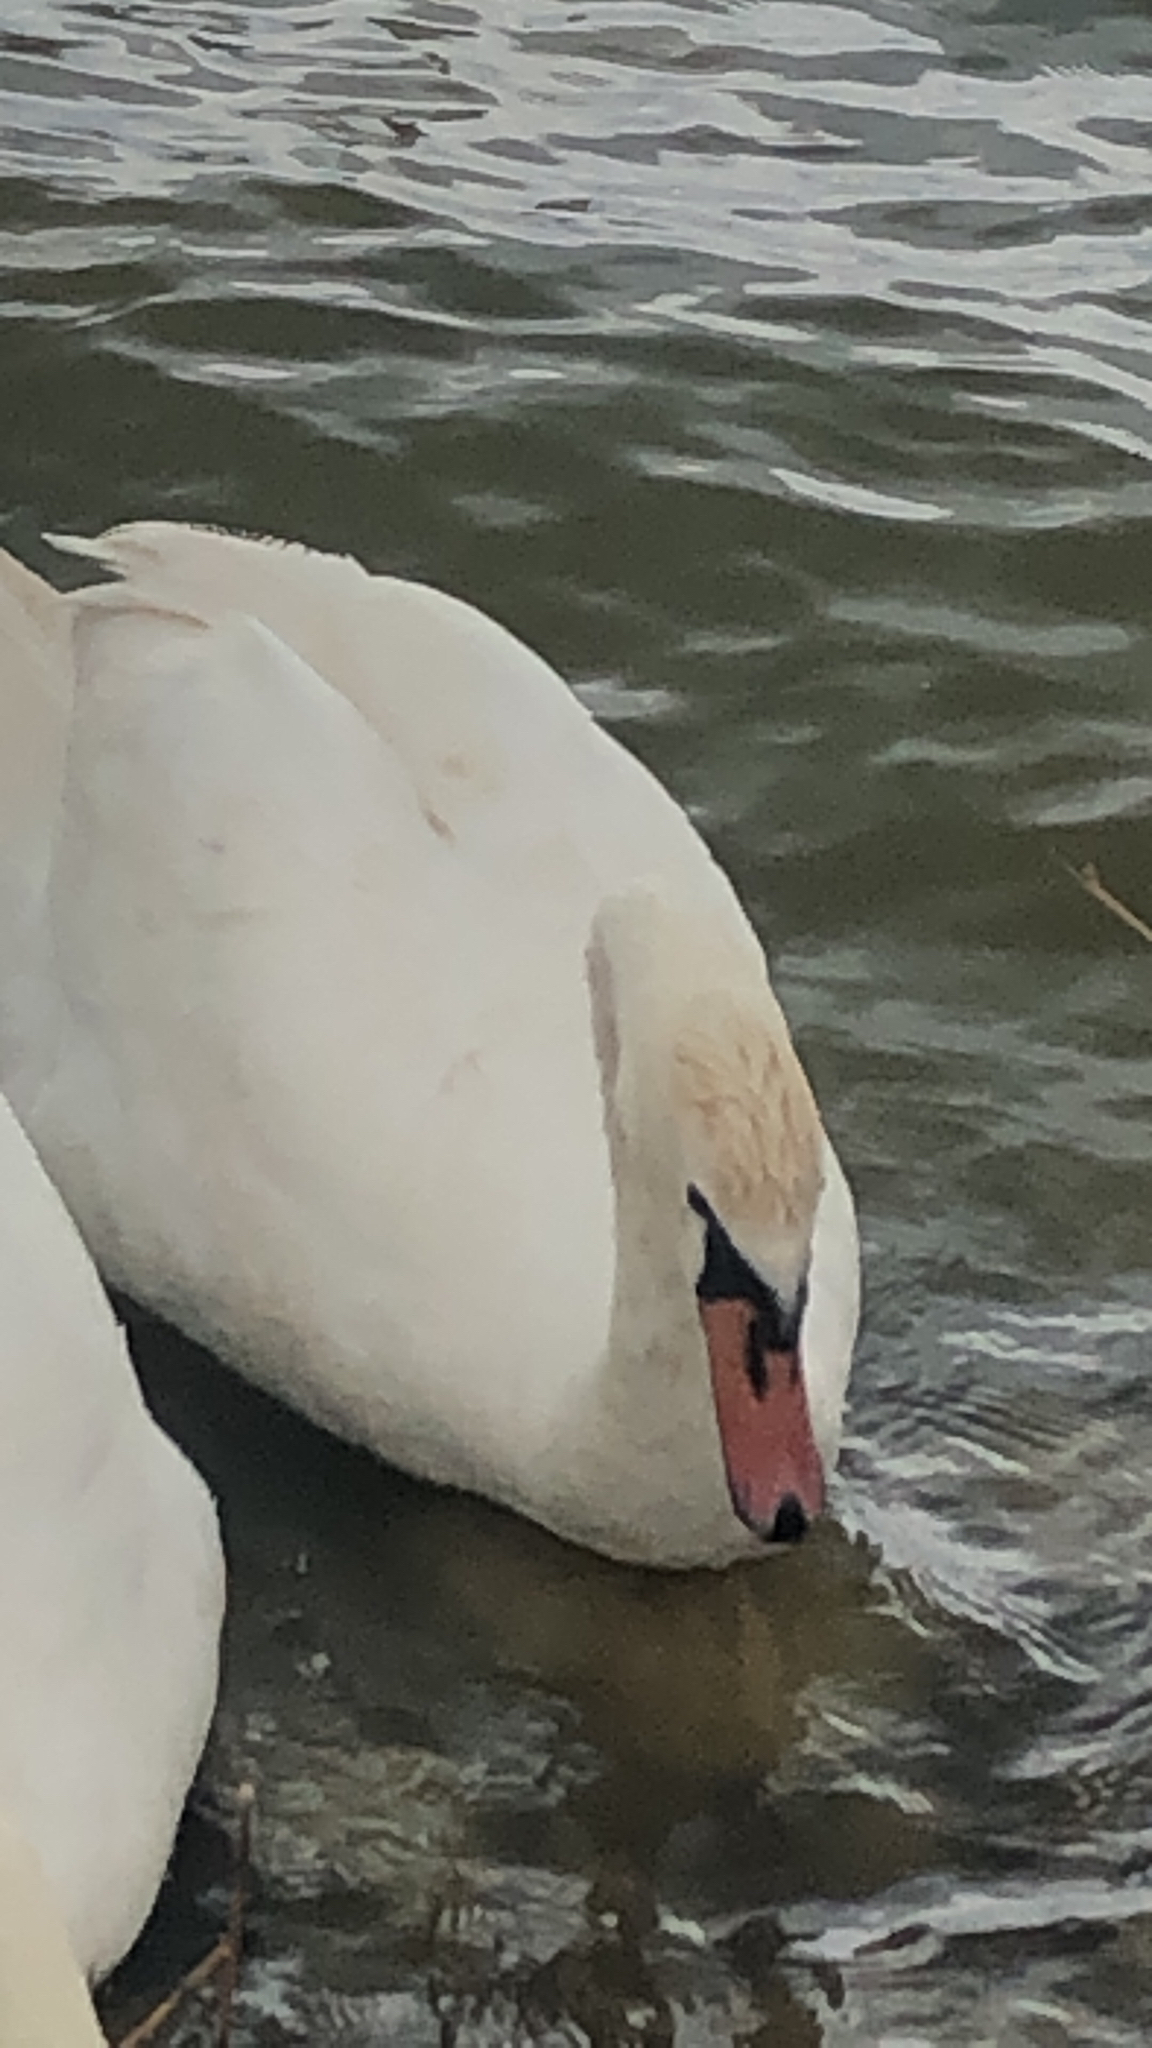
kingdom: Animalia
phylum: Chordata
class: Aves
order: Anseriformes
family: Anatidae
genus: Cygnus
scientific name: Cygnus olor
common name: Mute swan
